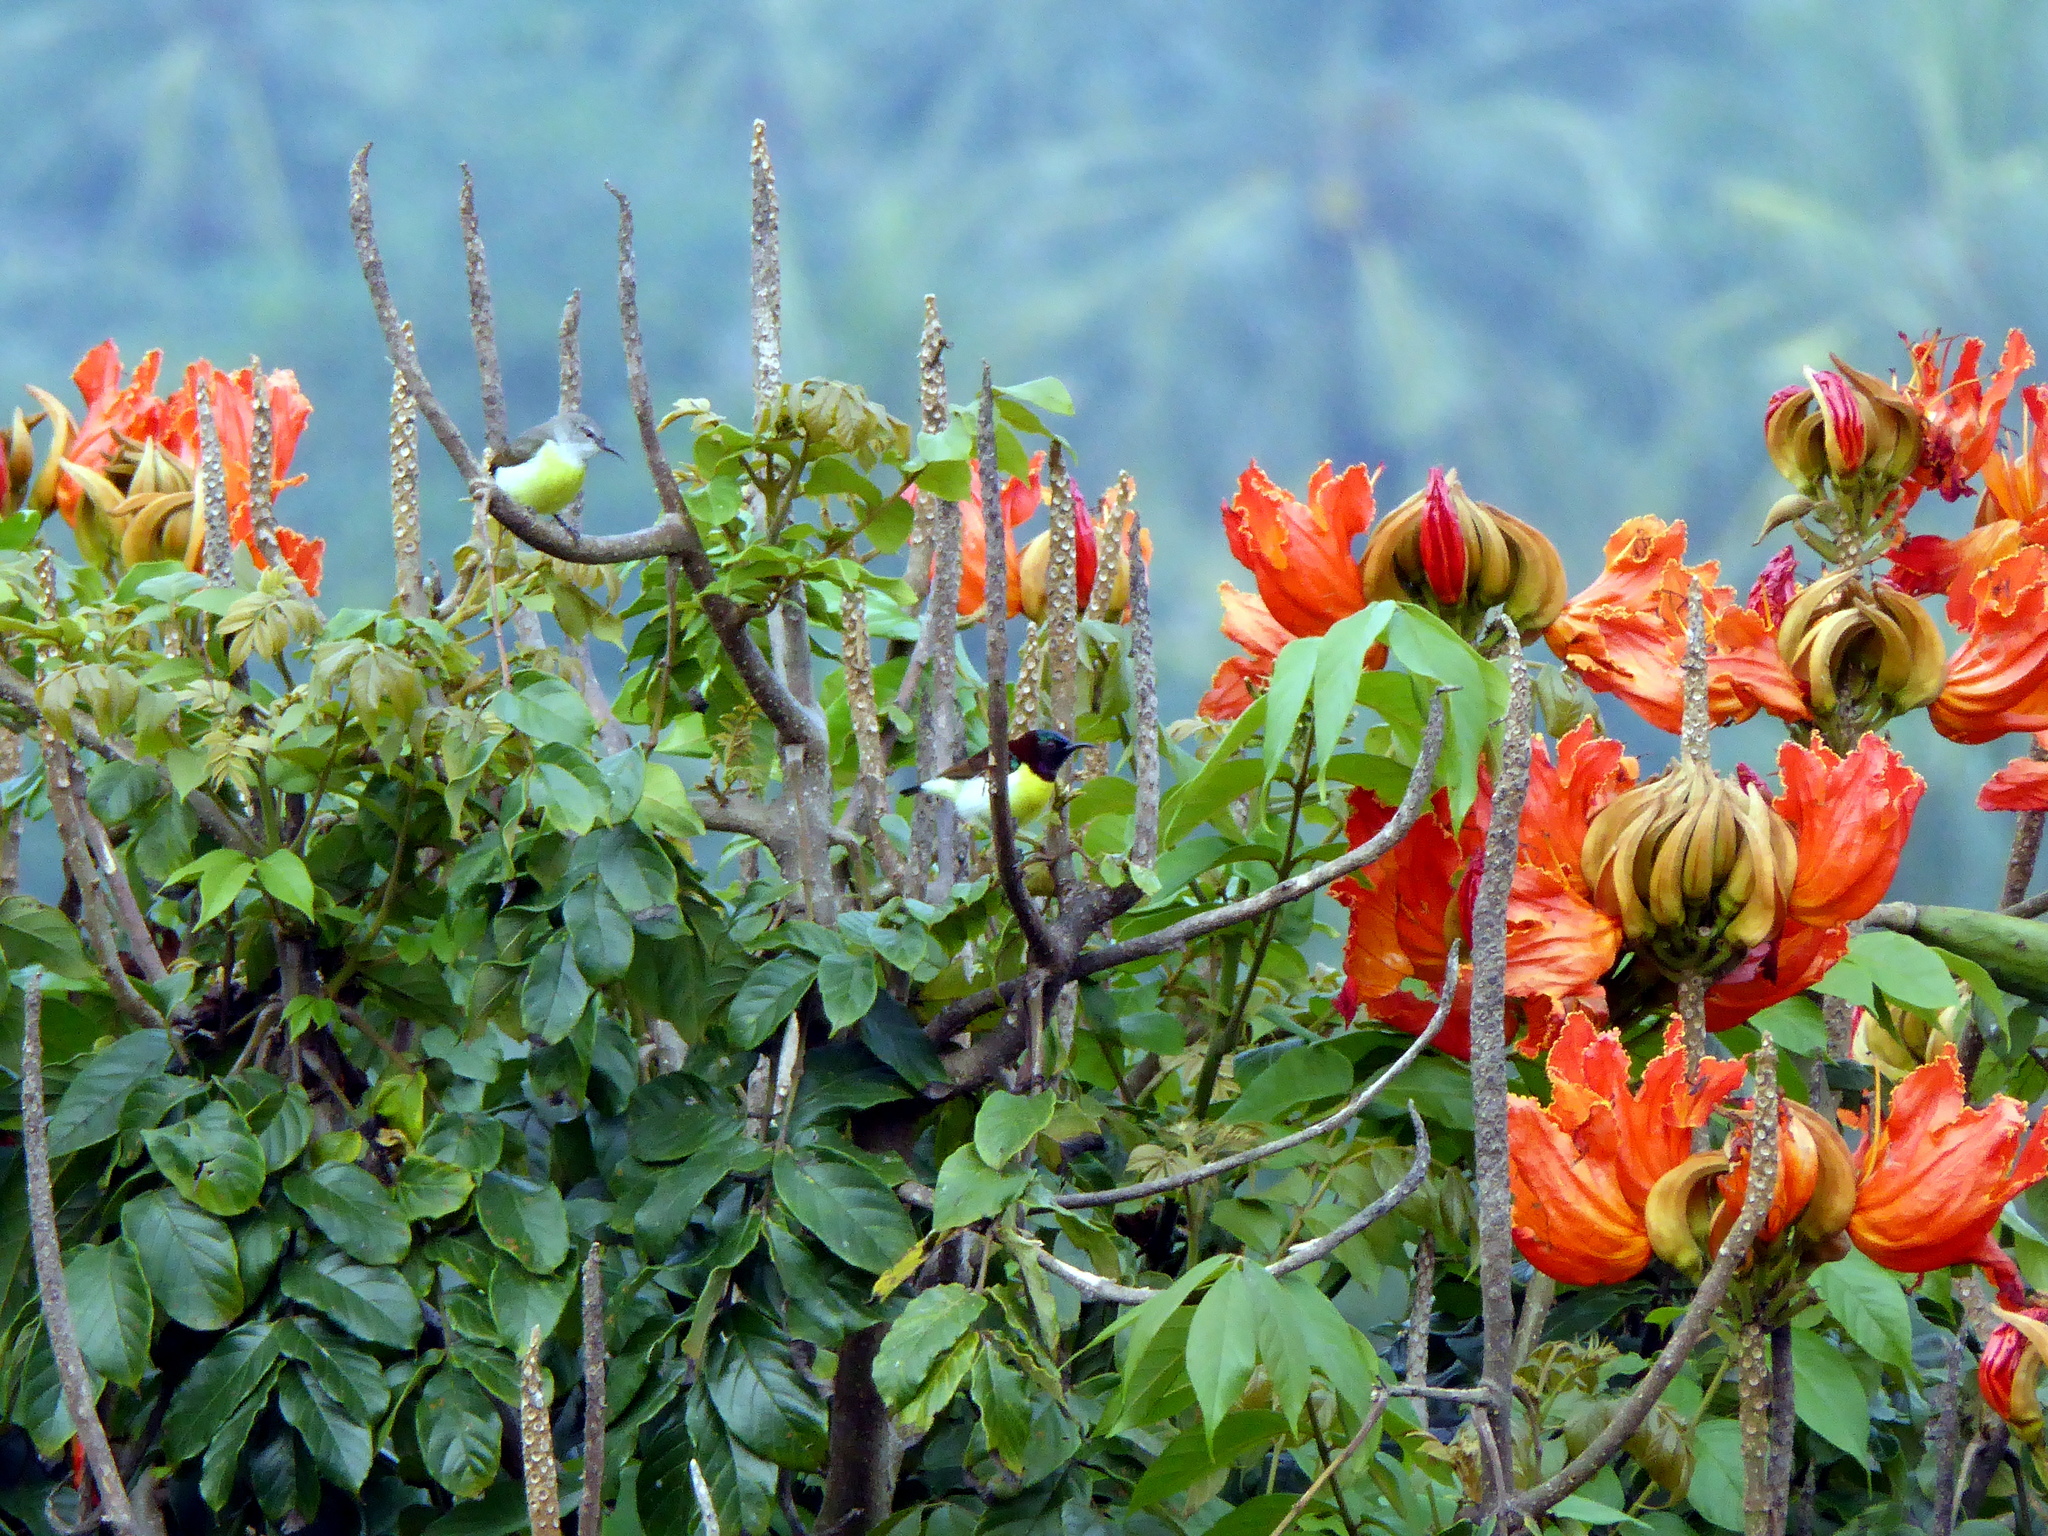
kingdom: Plantae
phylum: Tracheophyta
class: Magnoliopsida
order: Lamiales
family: Bignoniaceae
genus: Spathodea
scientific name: Spathodea campanulata
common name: African tuliptree
